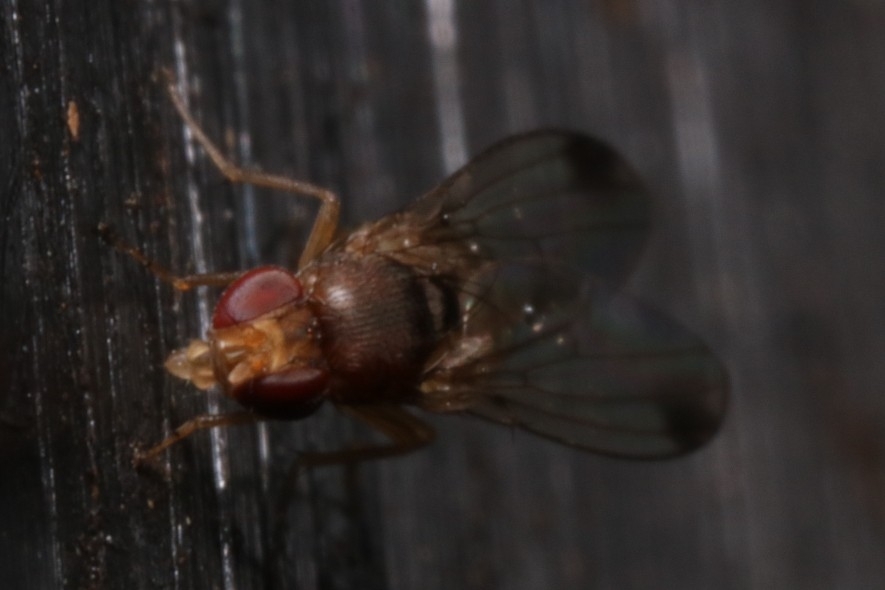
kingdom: Animalia
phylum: Arthropoda
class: Insecta
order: Diptera
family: Drosophilidae
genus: Drosophila
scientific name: Drosophila suzukii
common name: Spotted-wing drosophila
